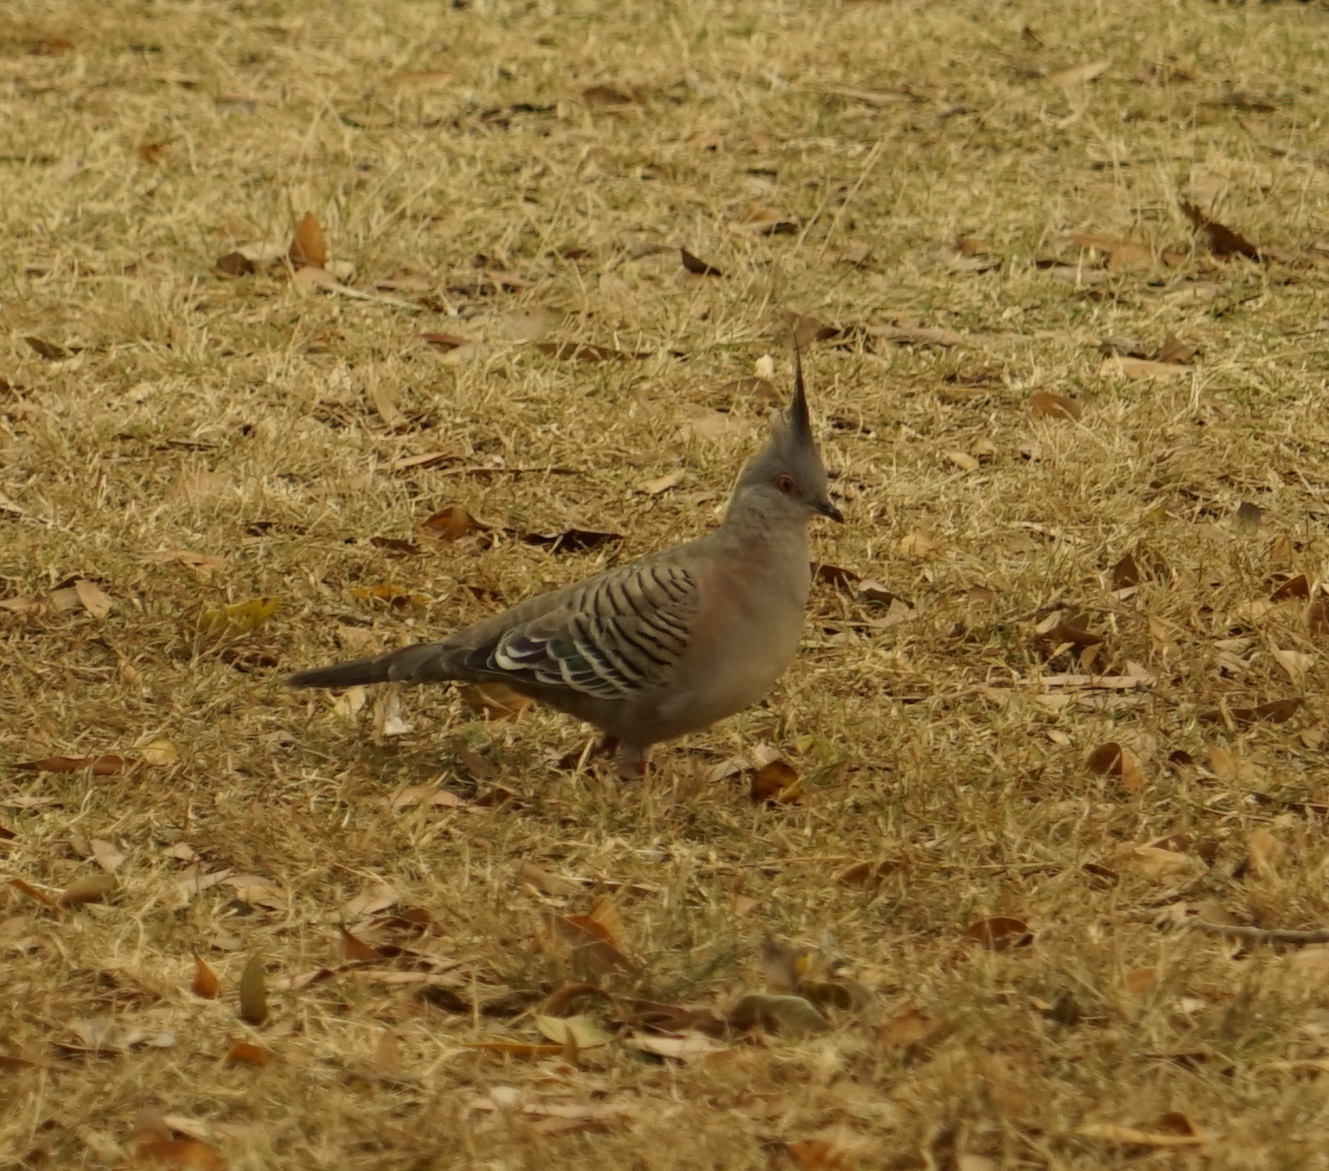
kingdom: Animalia
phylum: Chordata
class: Aves
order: Columbiformes
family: Columbidae
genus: Ocyphaps
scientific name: Ocyphaps lophotes
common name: Crested pigeon
